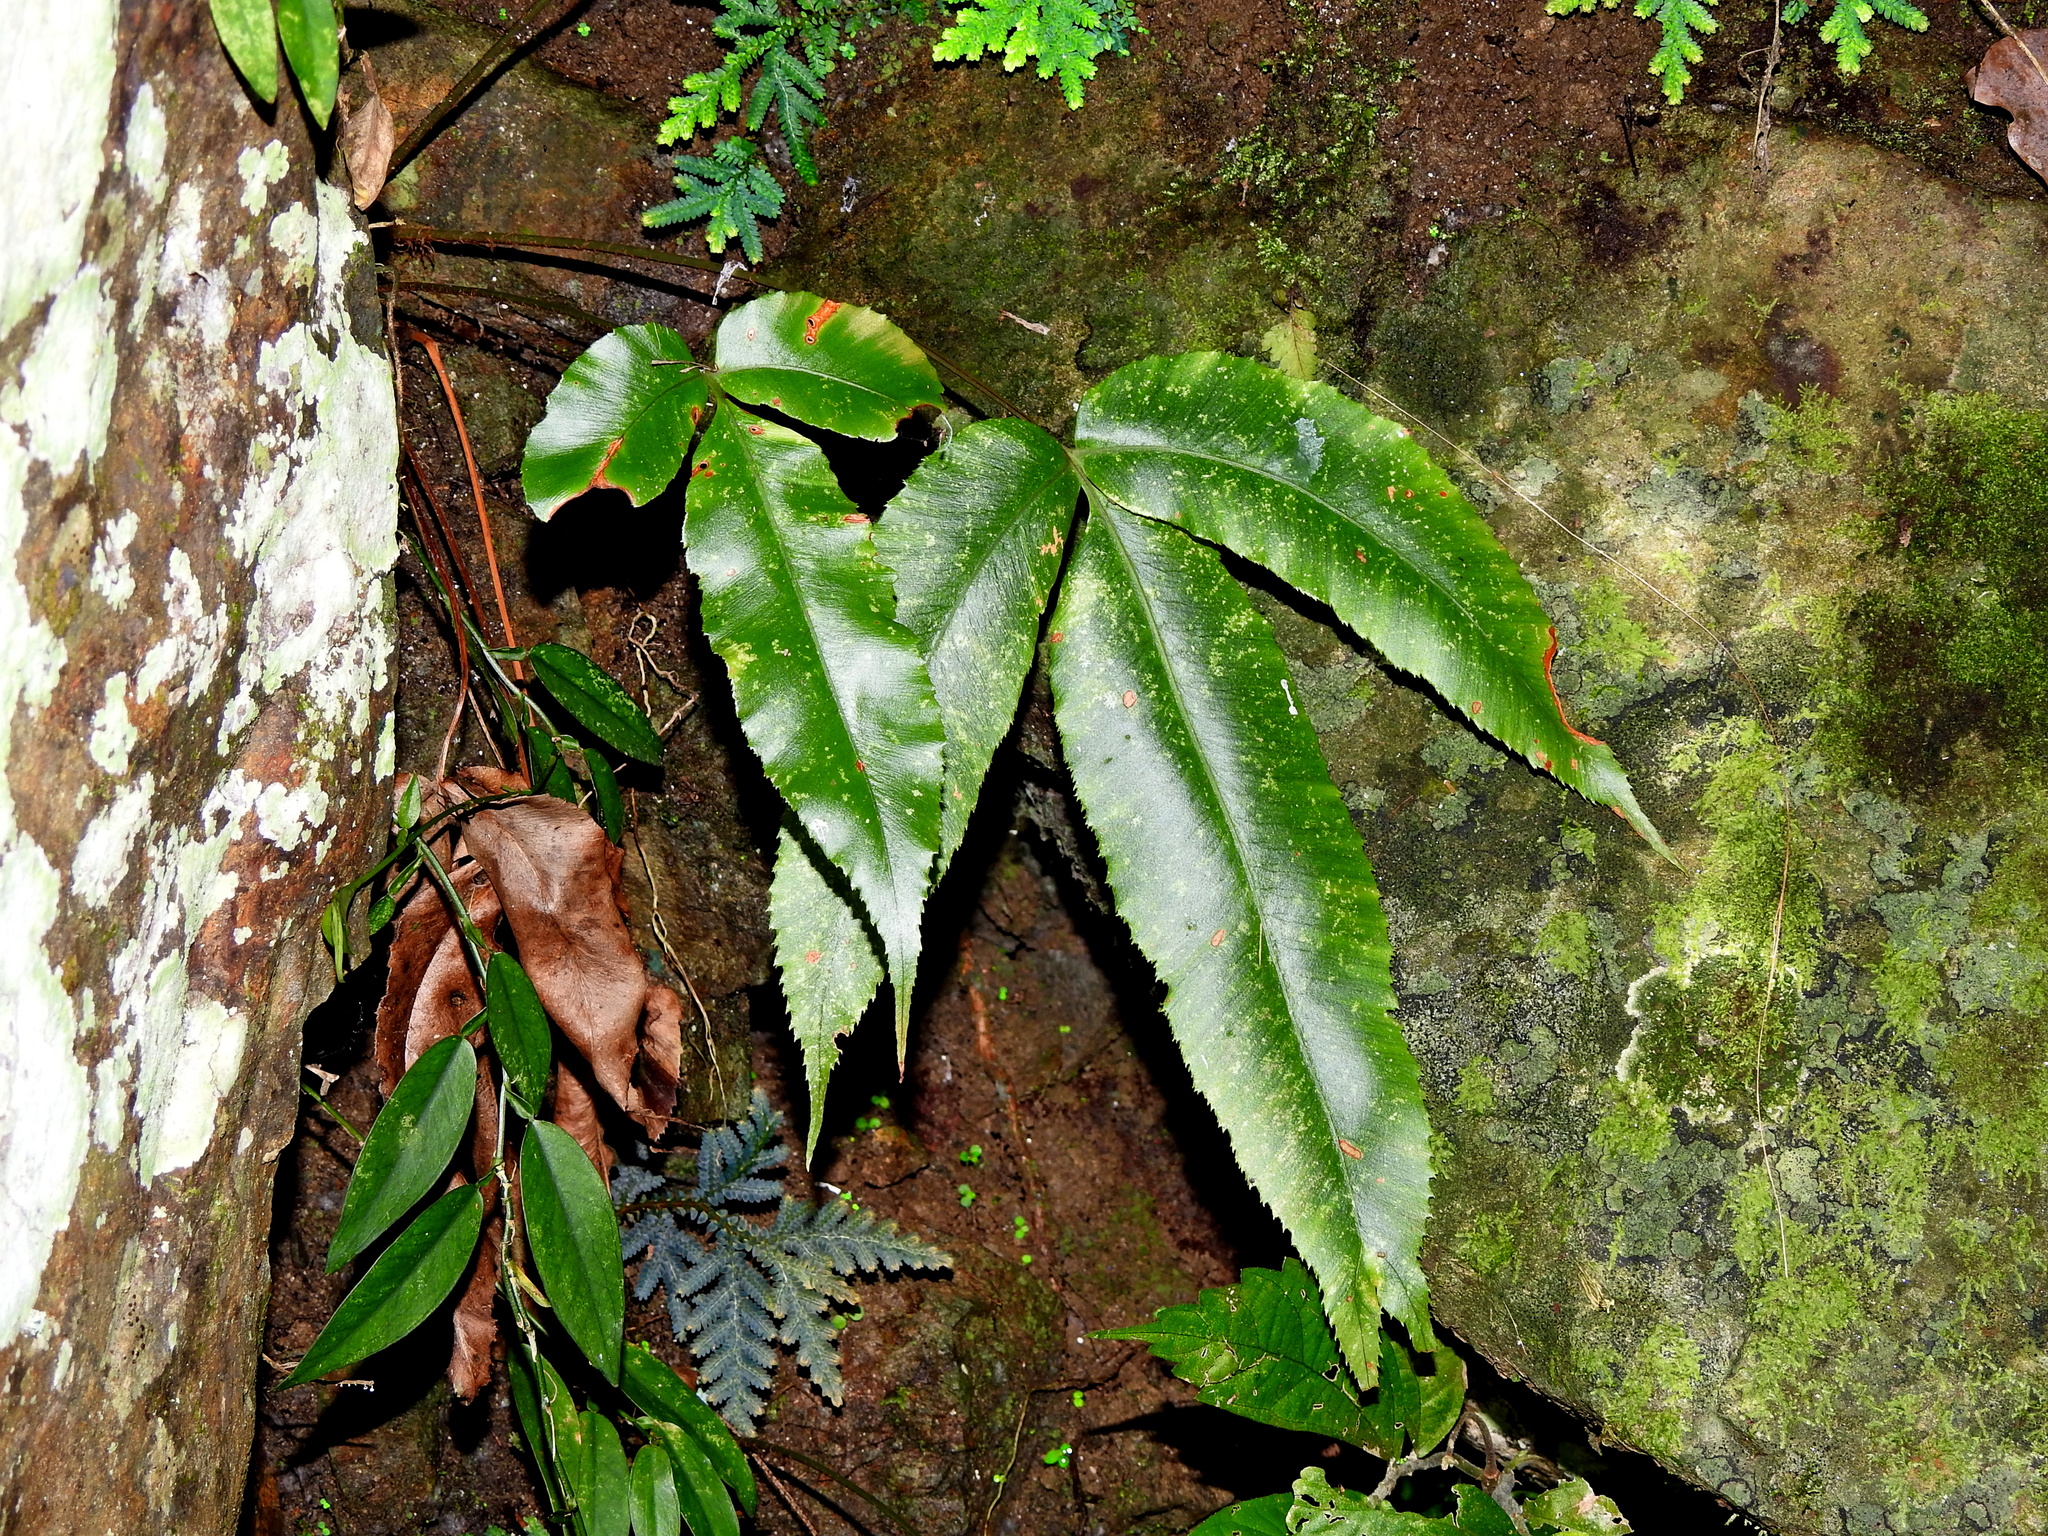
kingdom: Plantae
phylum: Tracheophyta
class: Polypodiopsida
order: Polypodiales
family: Athyriaceae
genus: Diplazium
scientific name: Diplazium lineolatum
